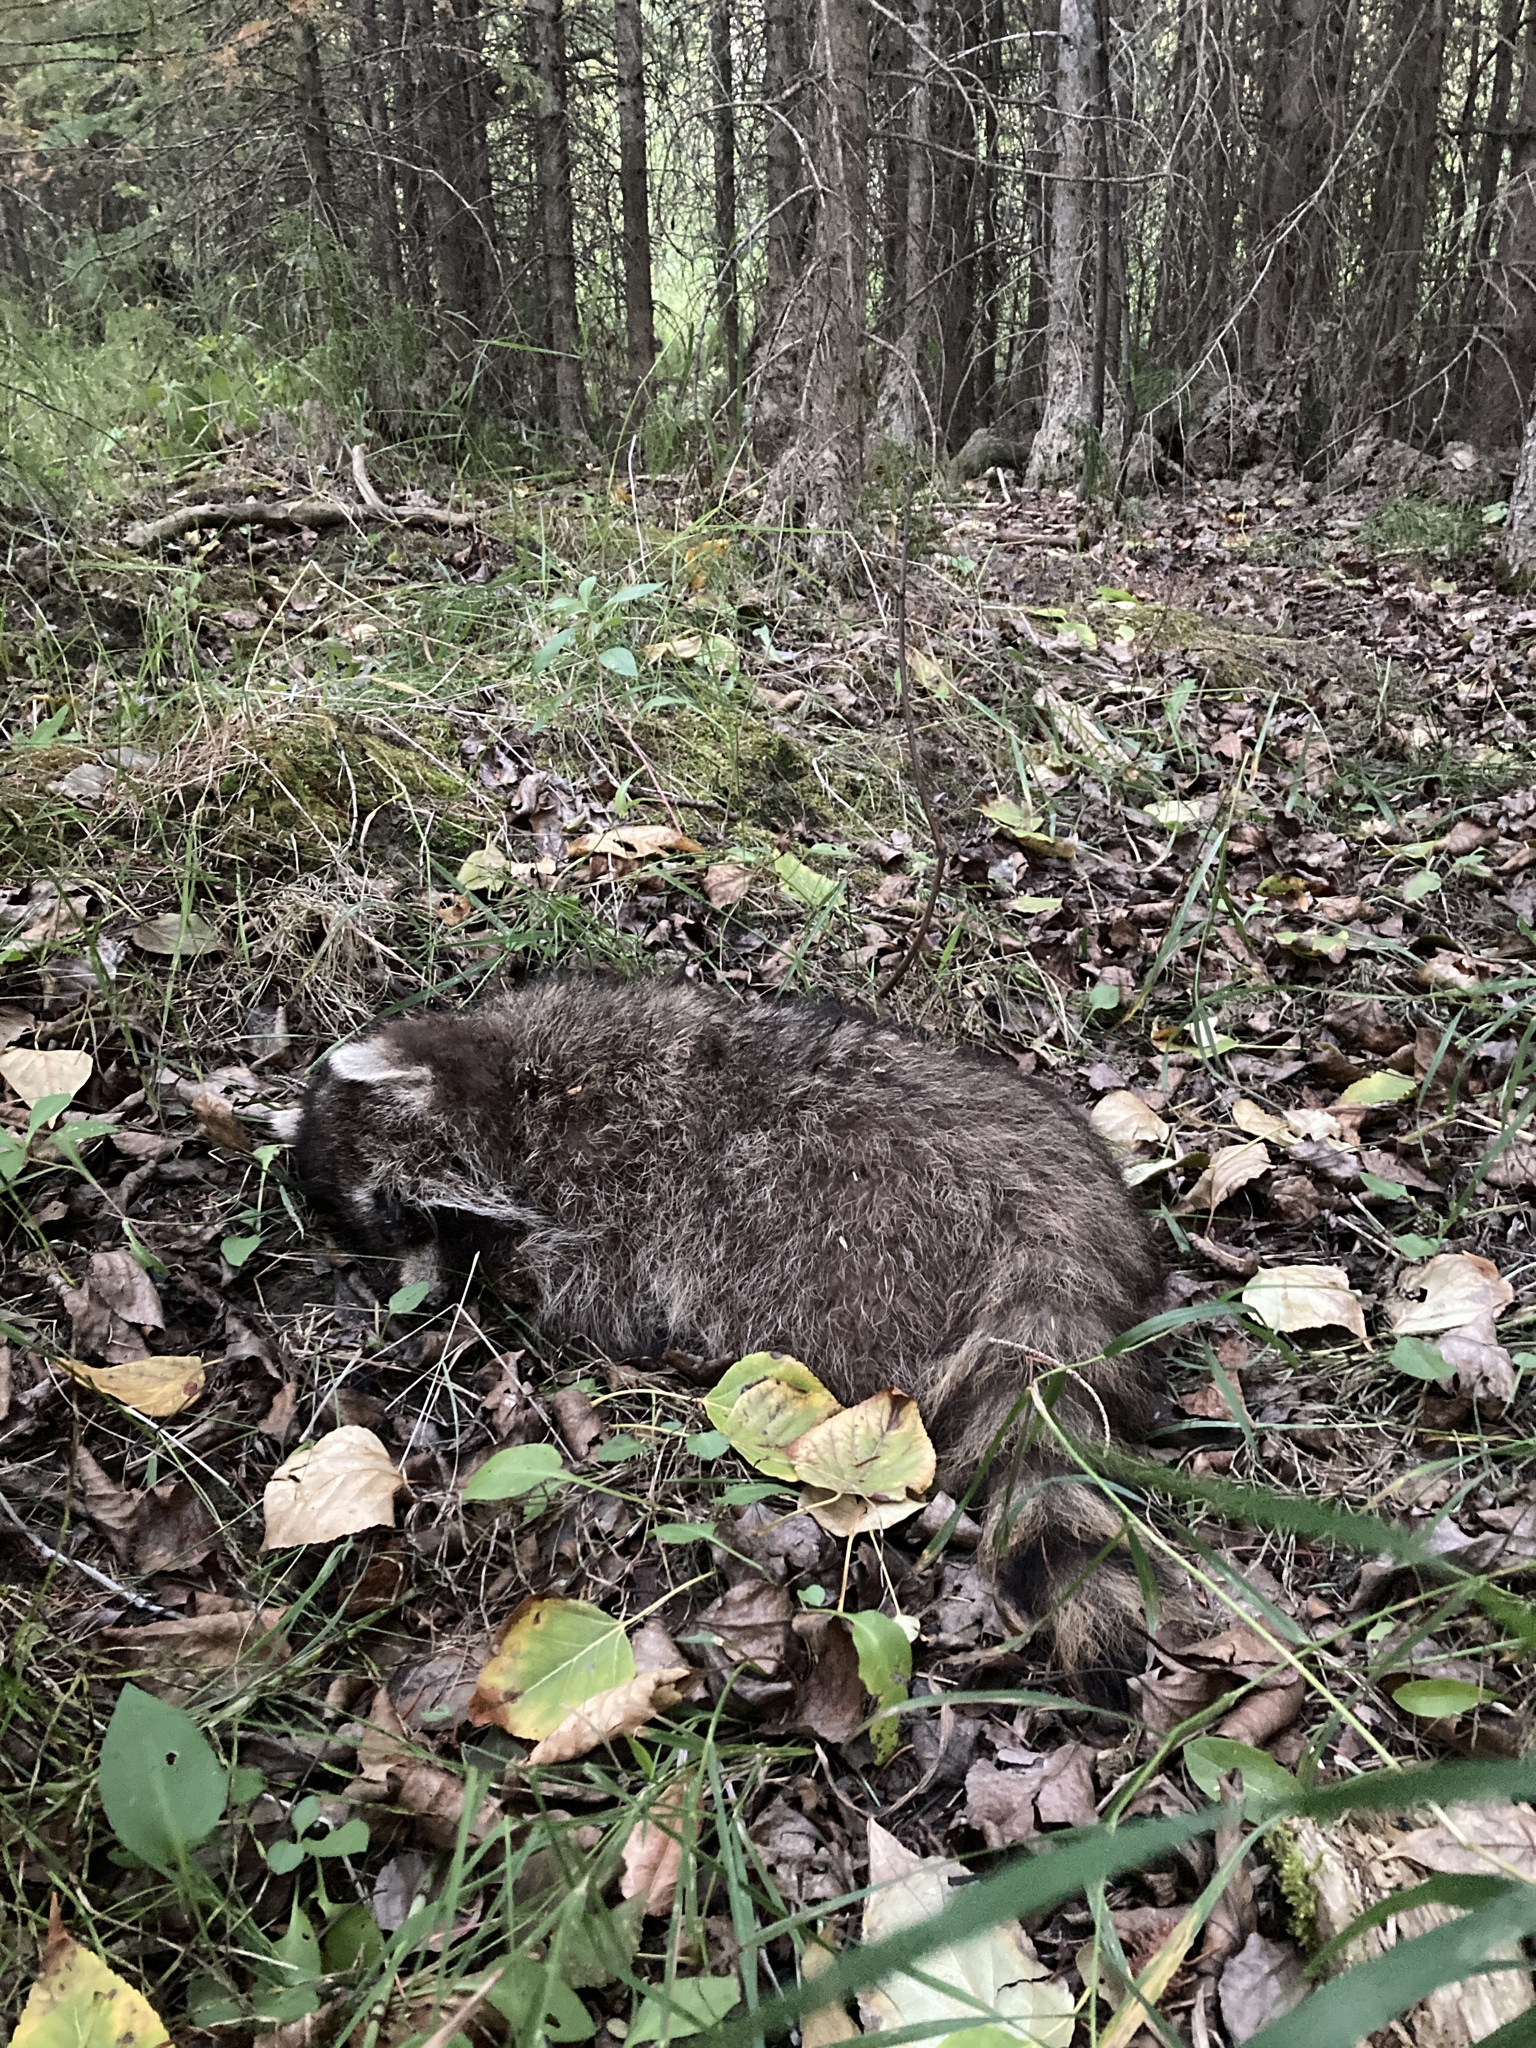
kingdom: Animalia
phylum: Chordata
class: Mammalia
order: Carnivora
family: Procyonidae
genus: Procyon
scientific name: Procyon lotor
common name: Raccoon
